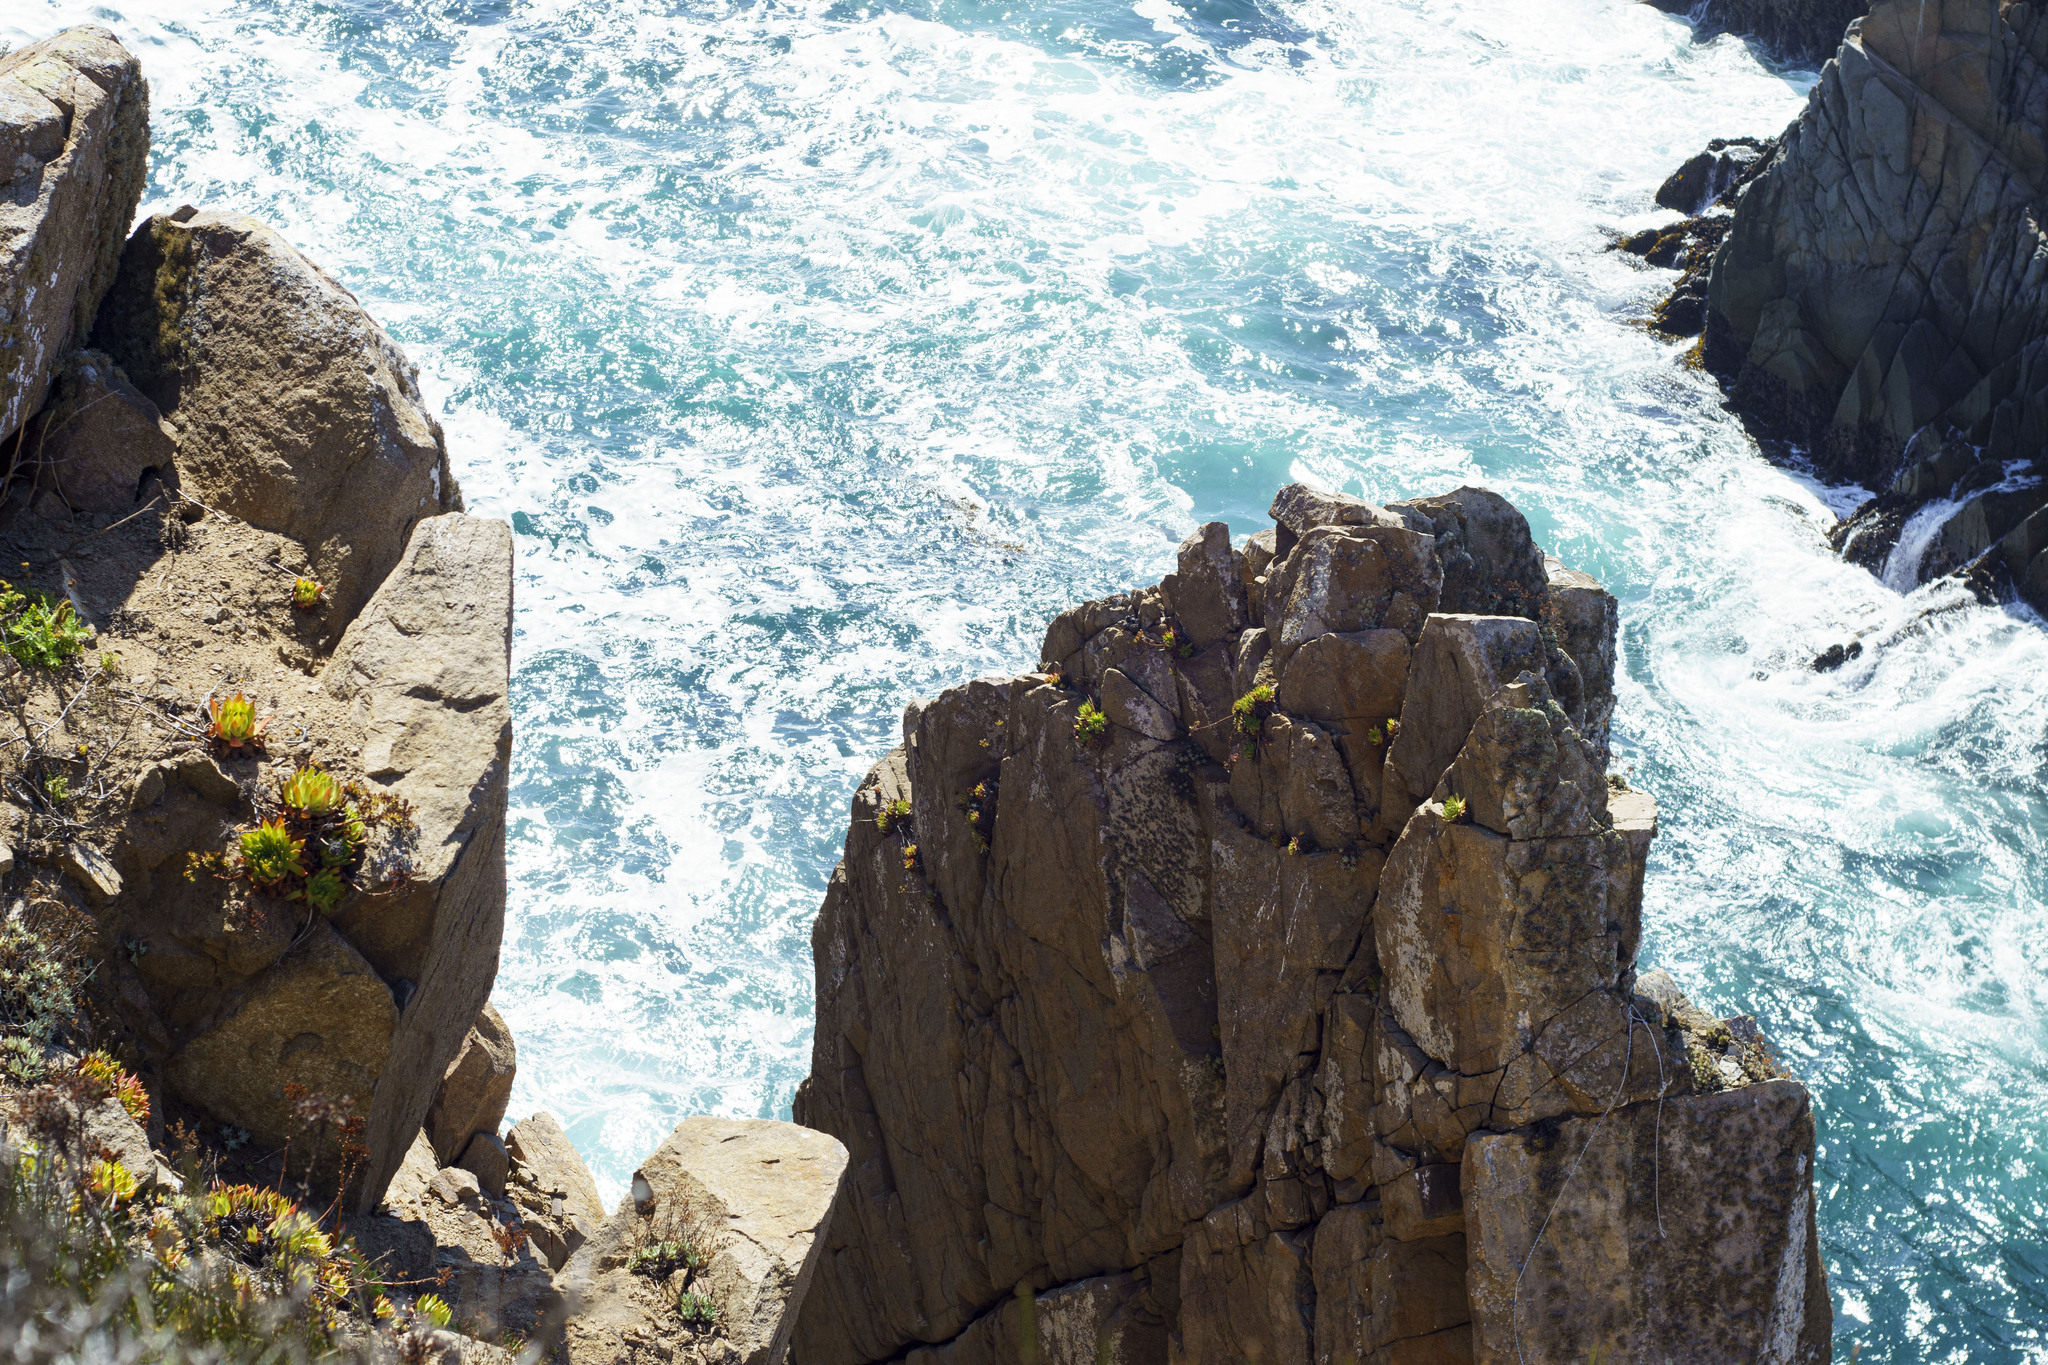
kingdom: Plantae
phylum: Tracheophyta
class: Magnoliopsida
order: Saxifragales
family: Crassulaceae
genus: Dudleya
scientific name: Dudleya
